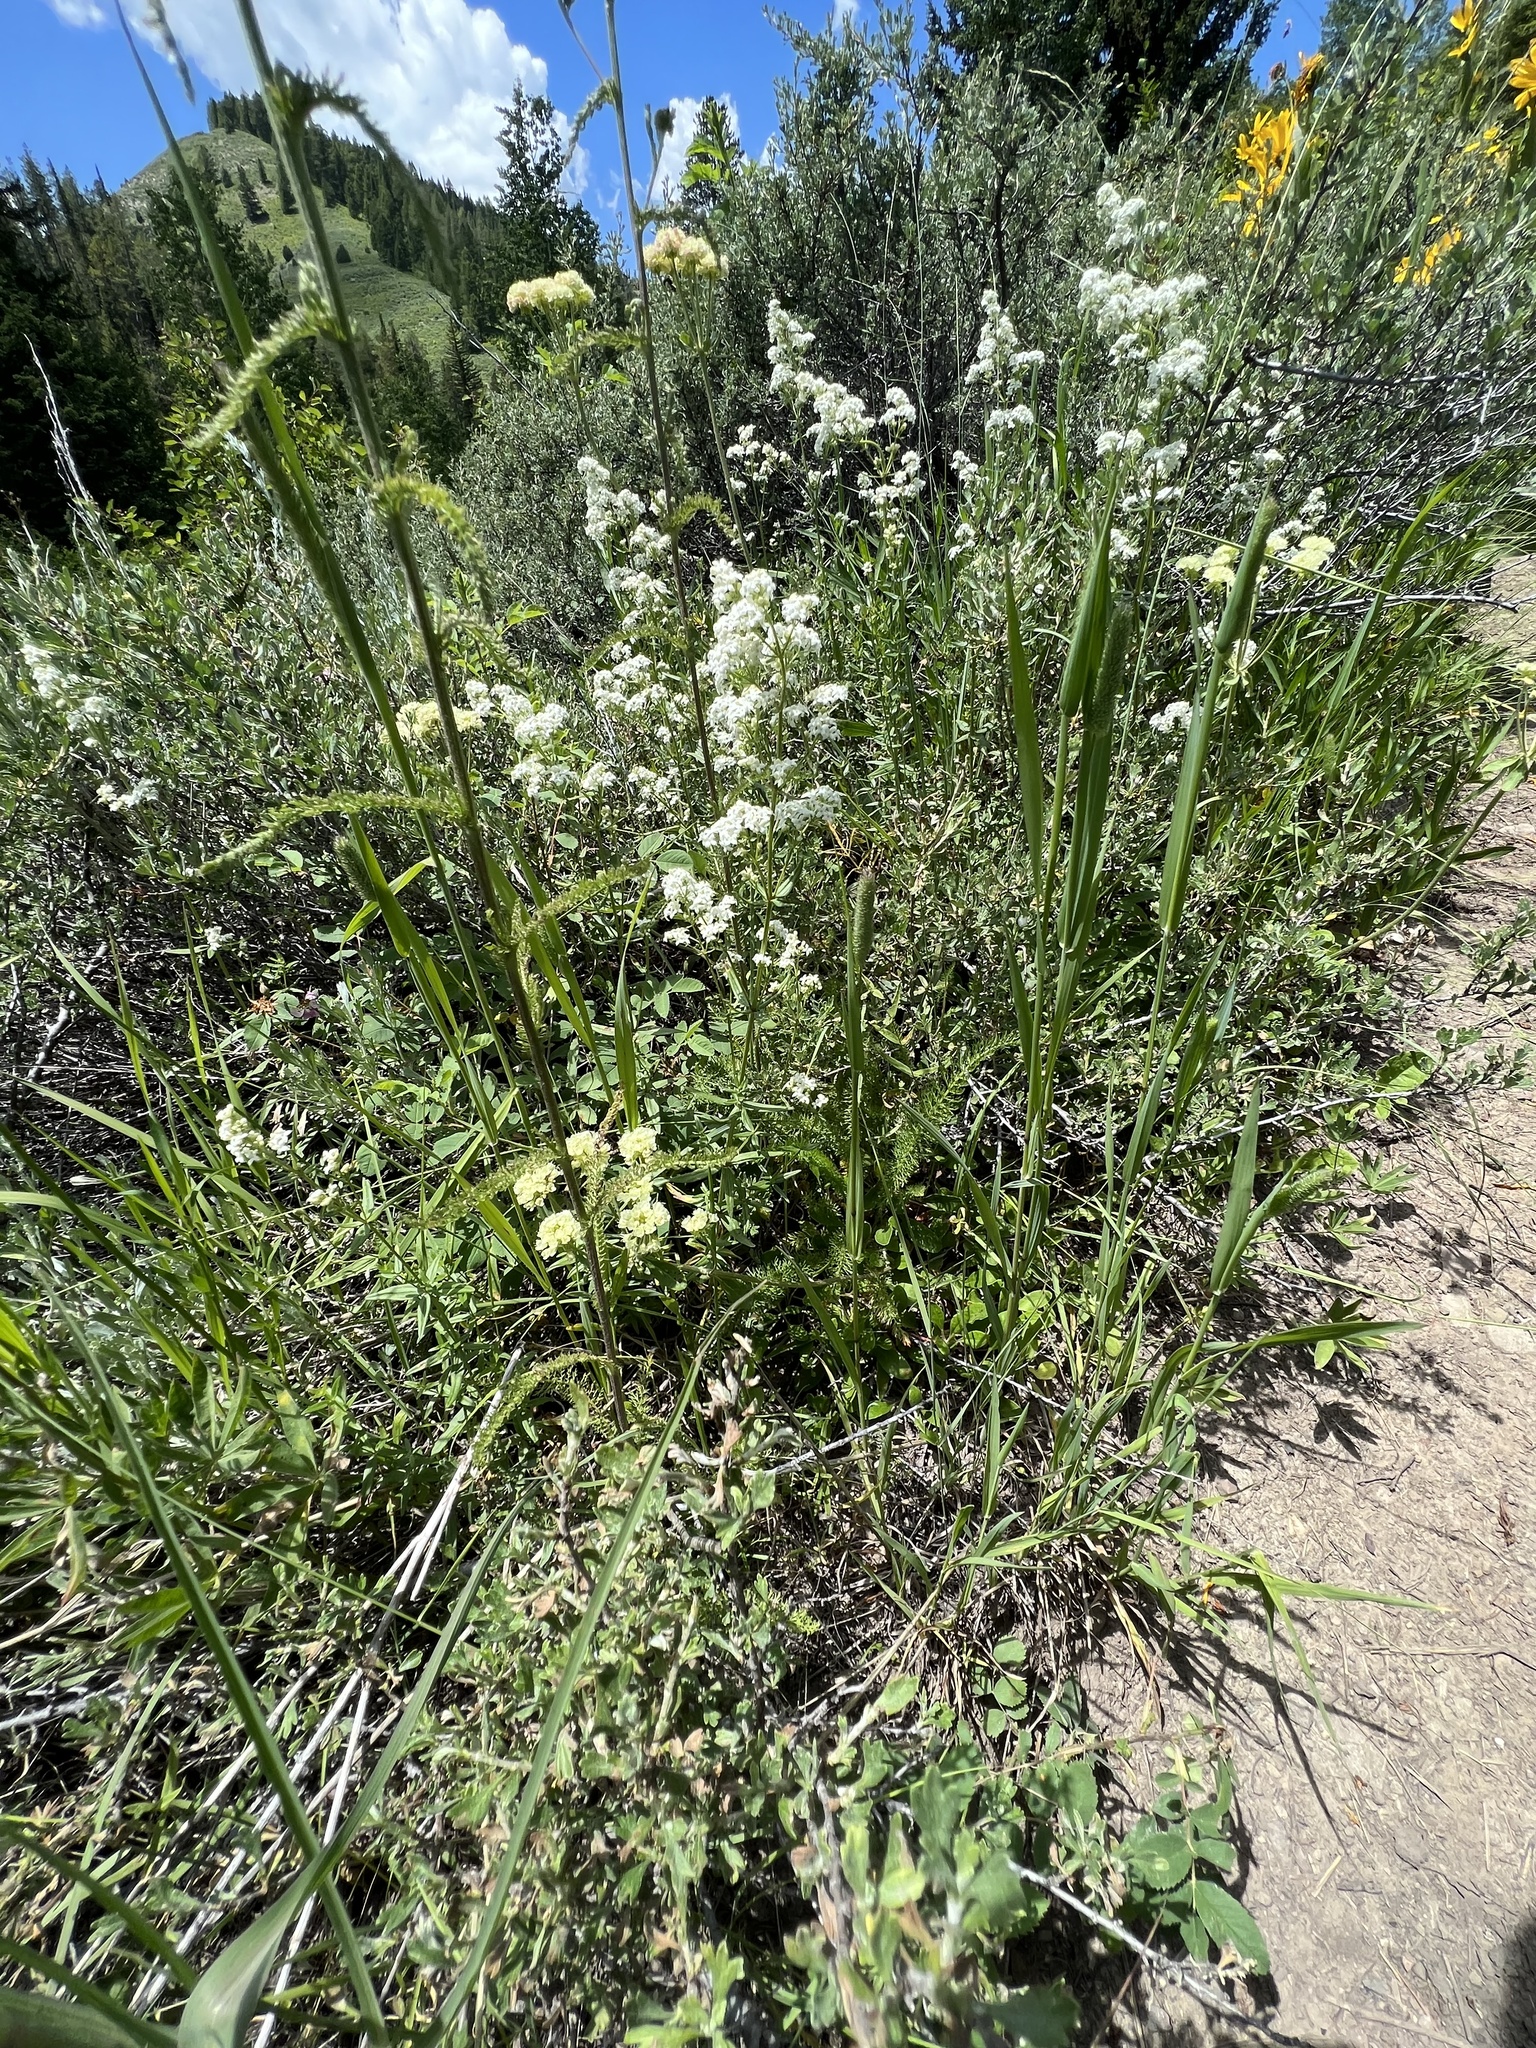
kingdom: Plantae
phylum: Tracheophyta
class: Magnoliopsida
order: Gentianales
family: Rubiaceae
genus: Galium
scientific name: Galium boreale
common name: Northern bedstraw
